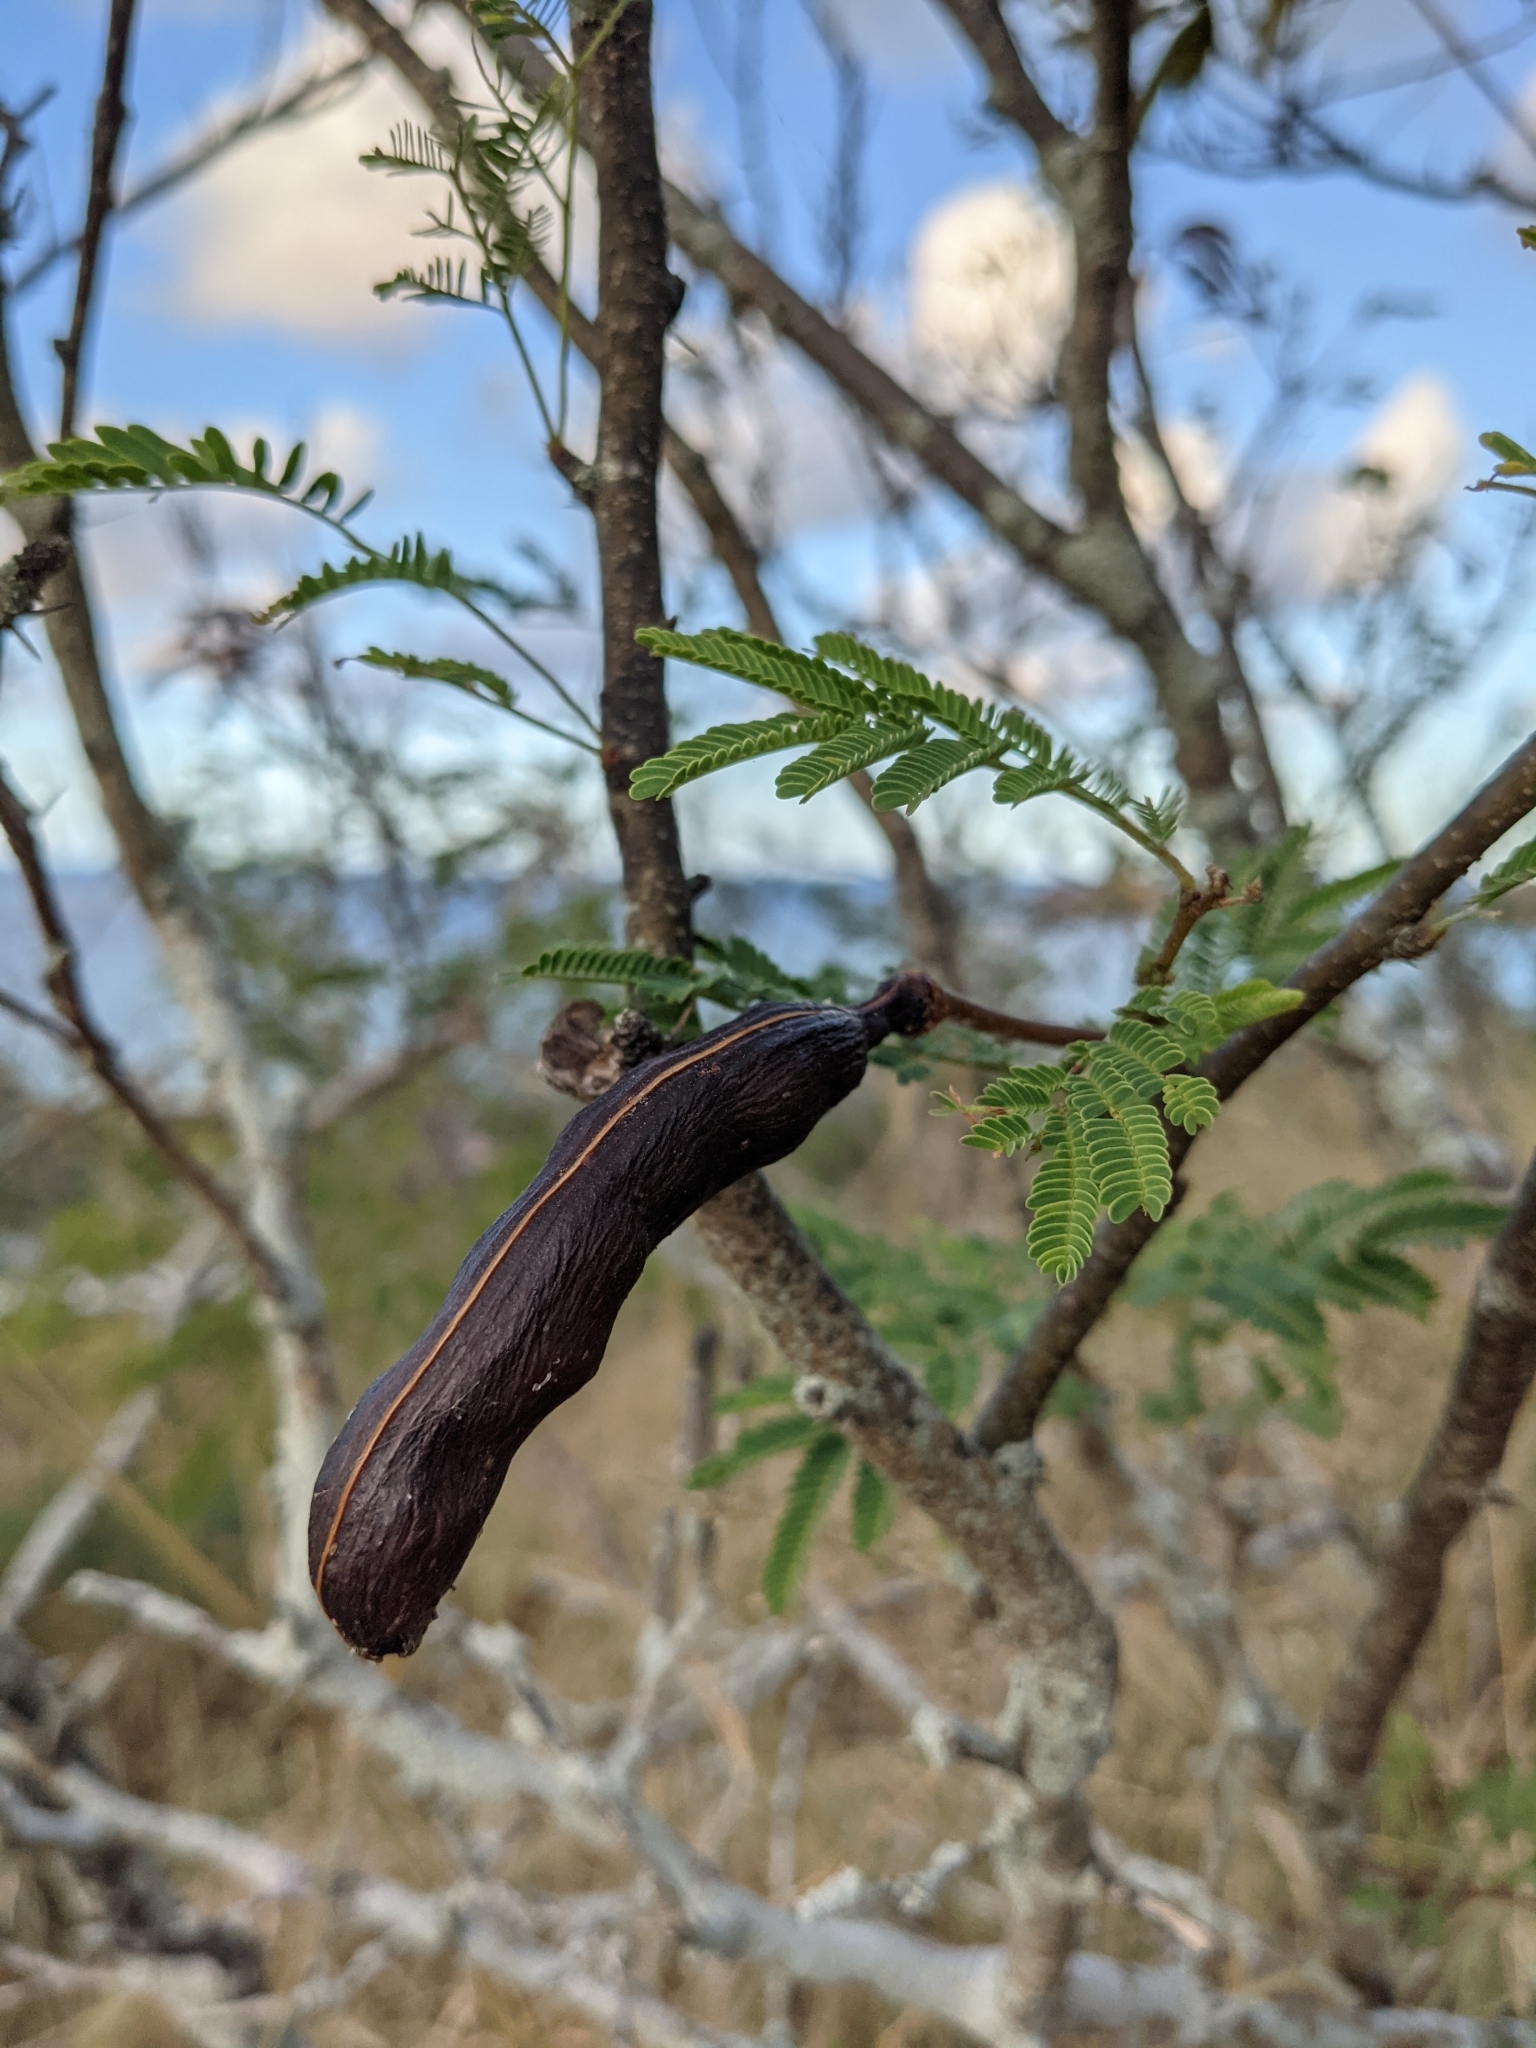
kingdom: Plantae
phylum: Tracheophyta
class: Magnoliopsida
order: Fabales
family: Fabaceae
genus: Vachellia
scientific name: Vachellia farnesiana
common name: Sweet acacia
